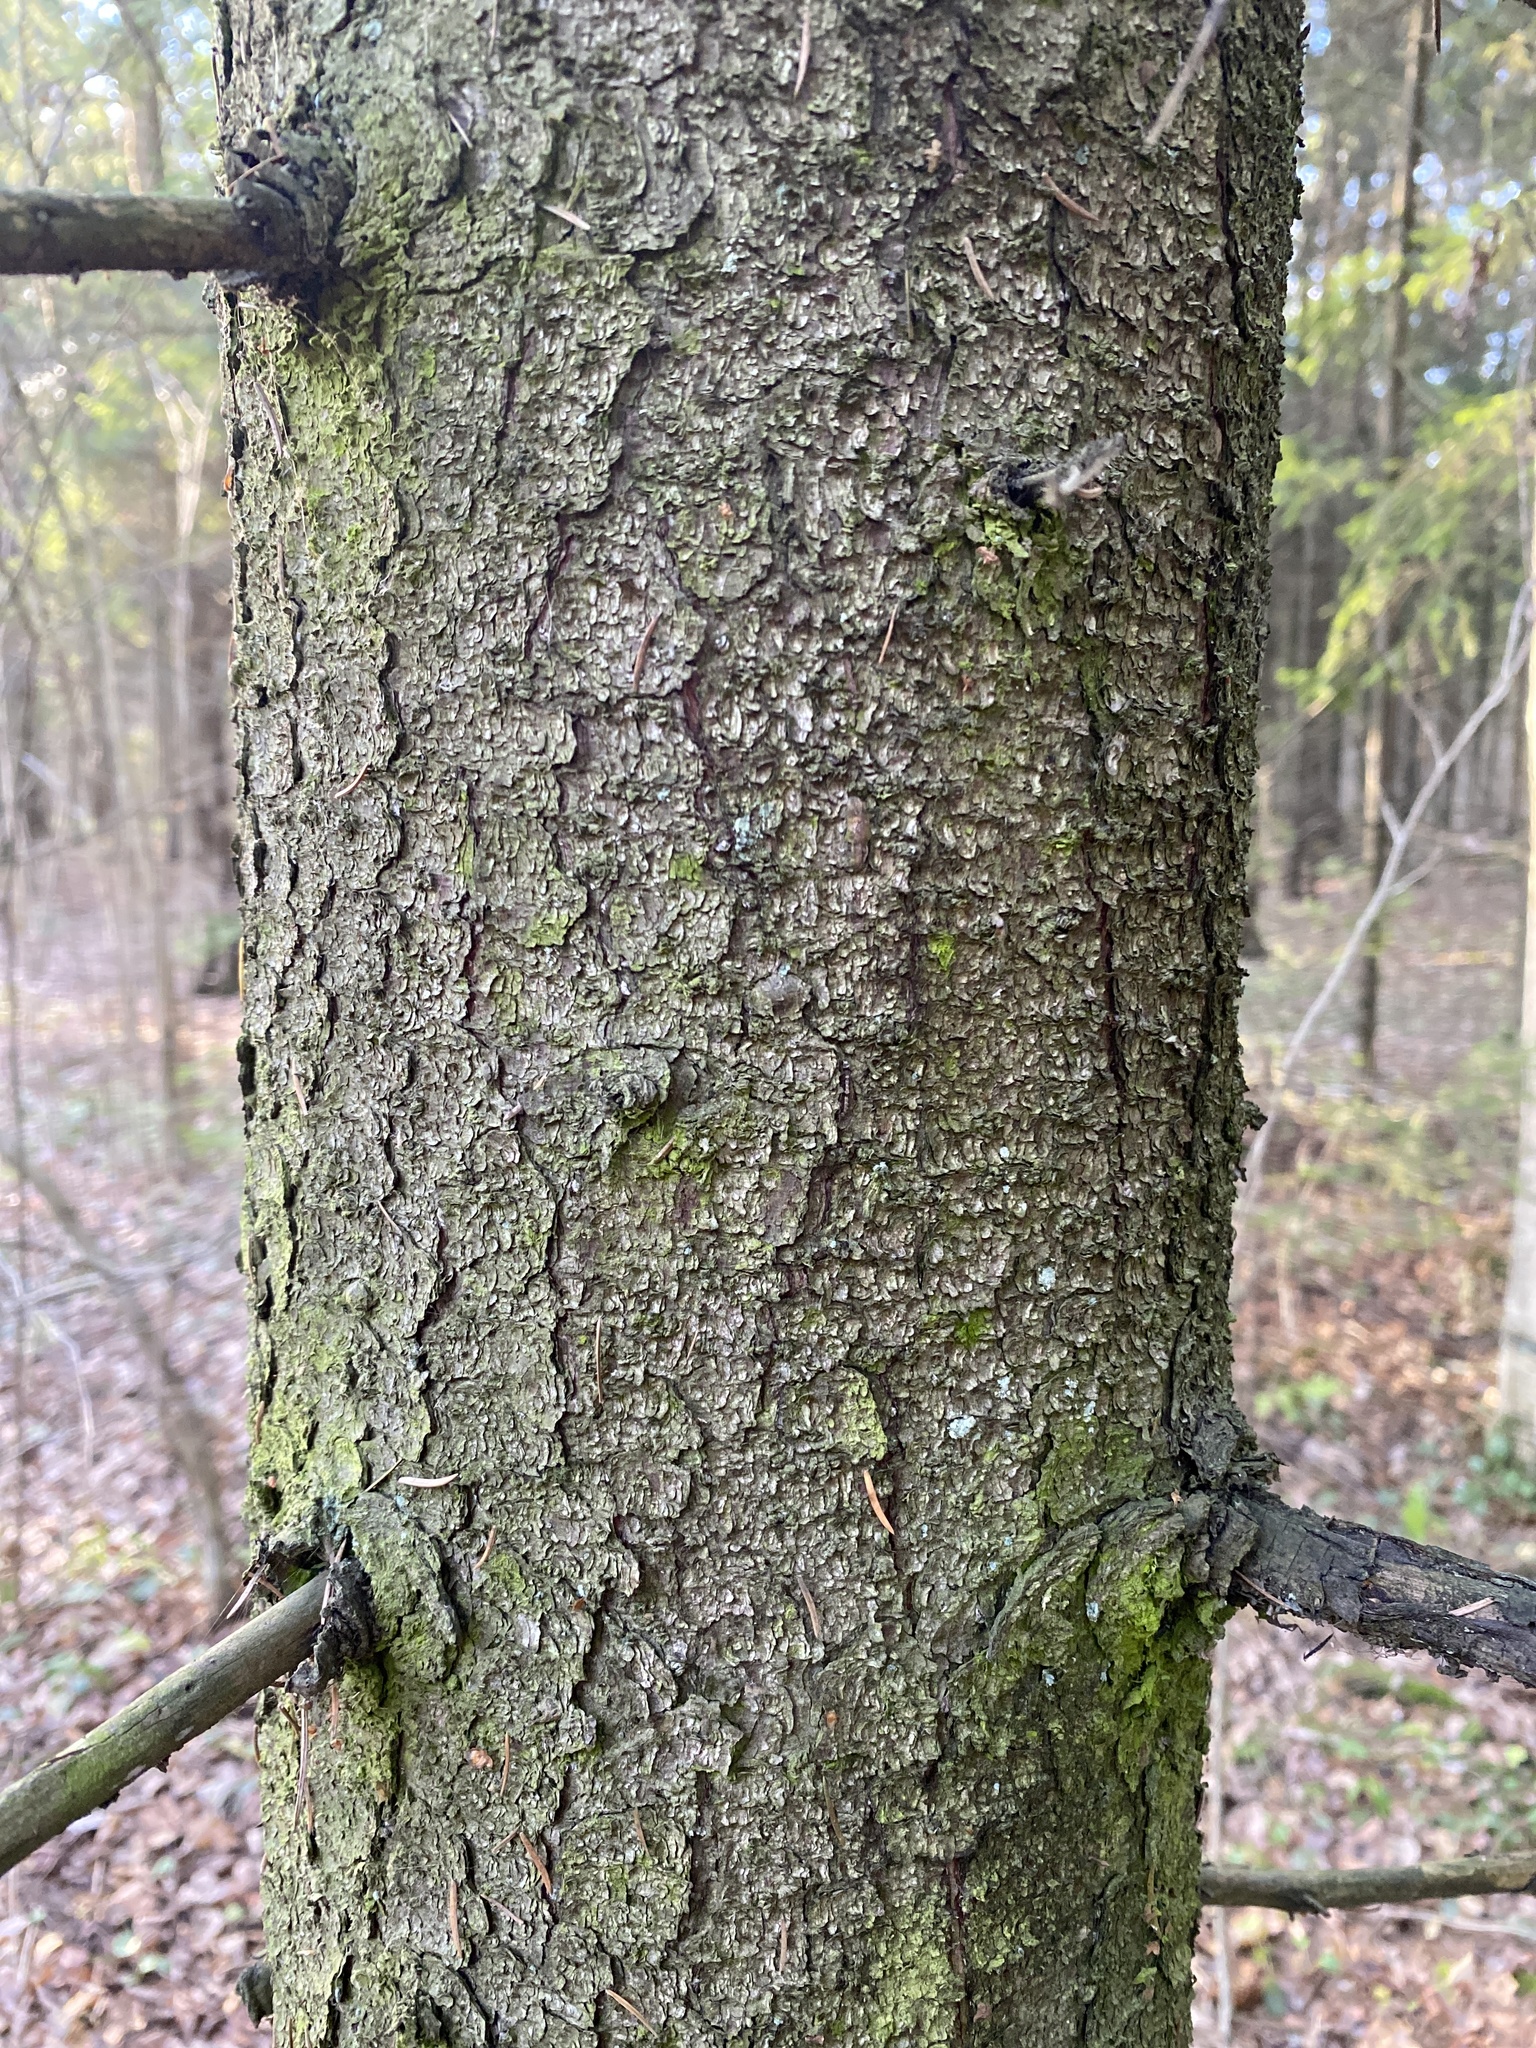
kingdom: Plantae
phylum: Tracheophyta
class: Pinopsida
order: Pinales
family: Pinaceae
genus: Picea
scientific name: Picea abies
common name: Norway spruce
